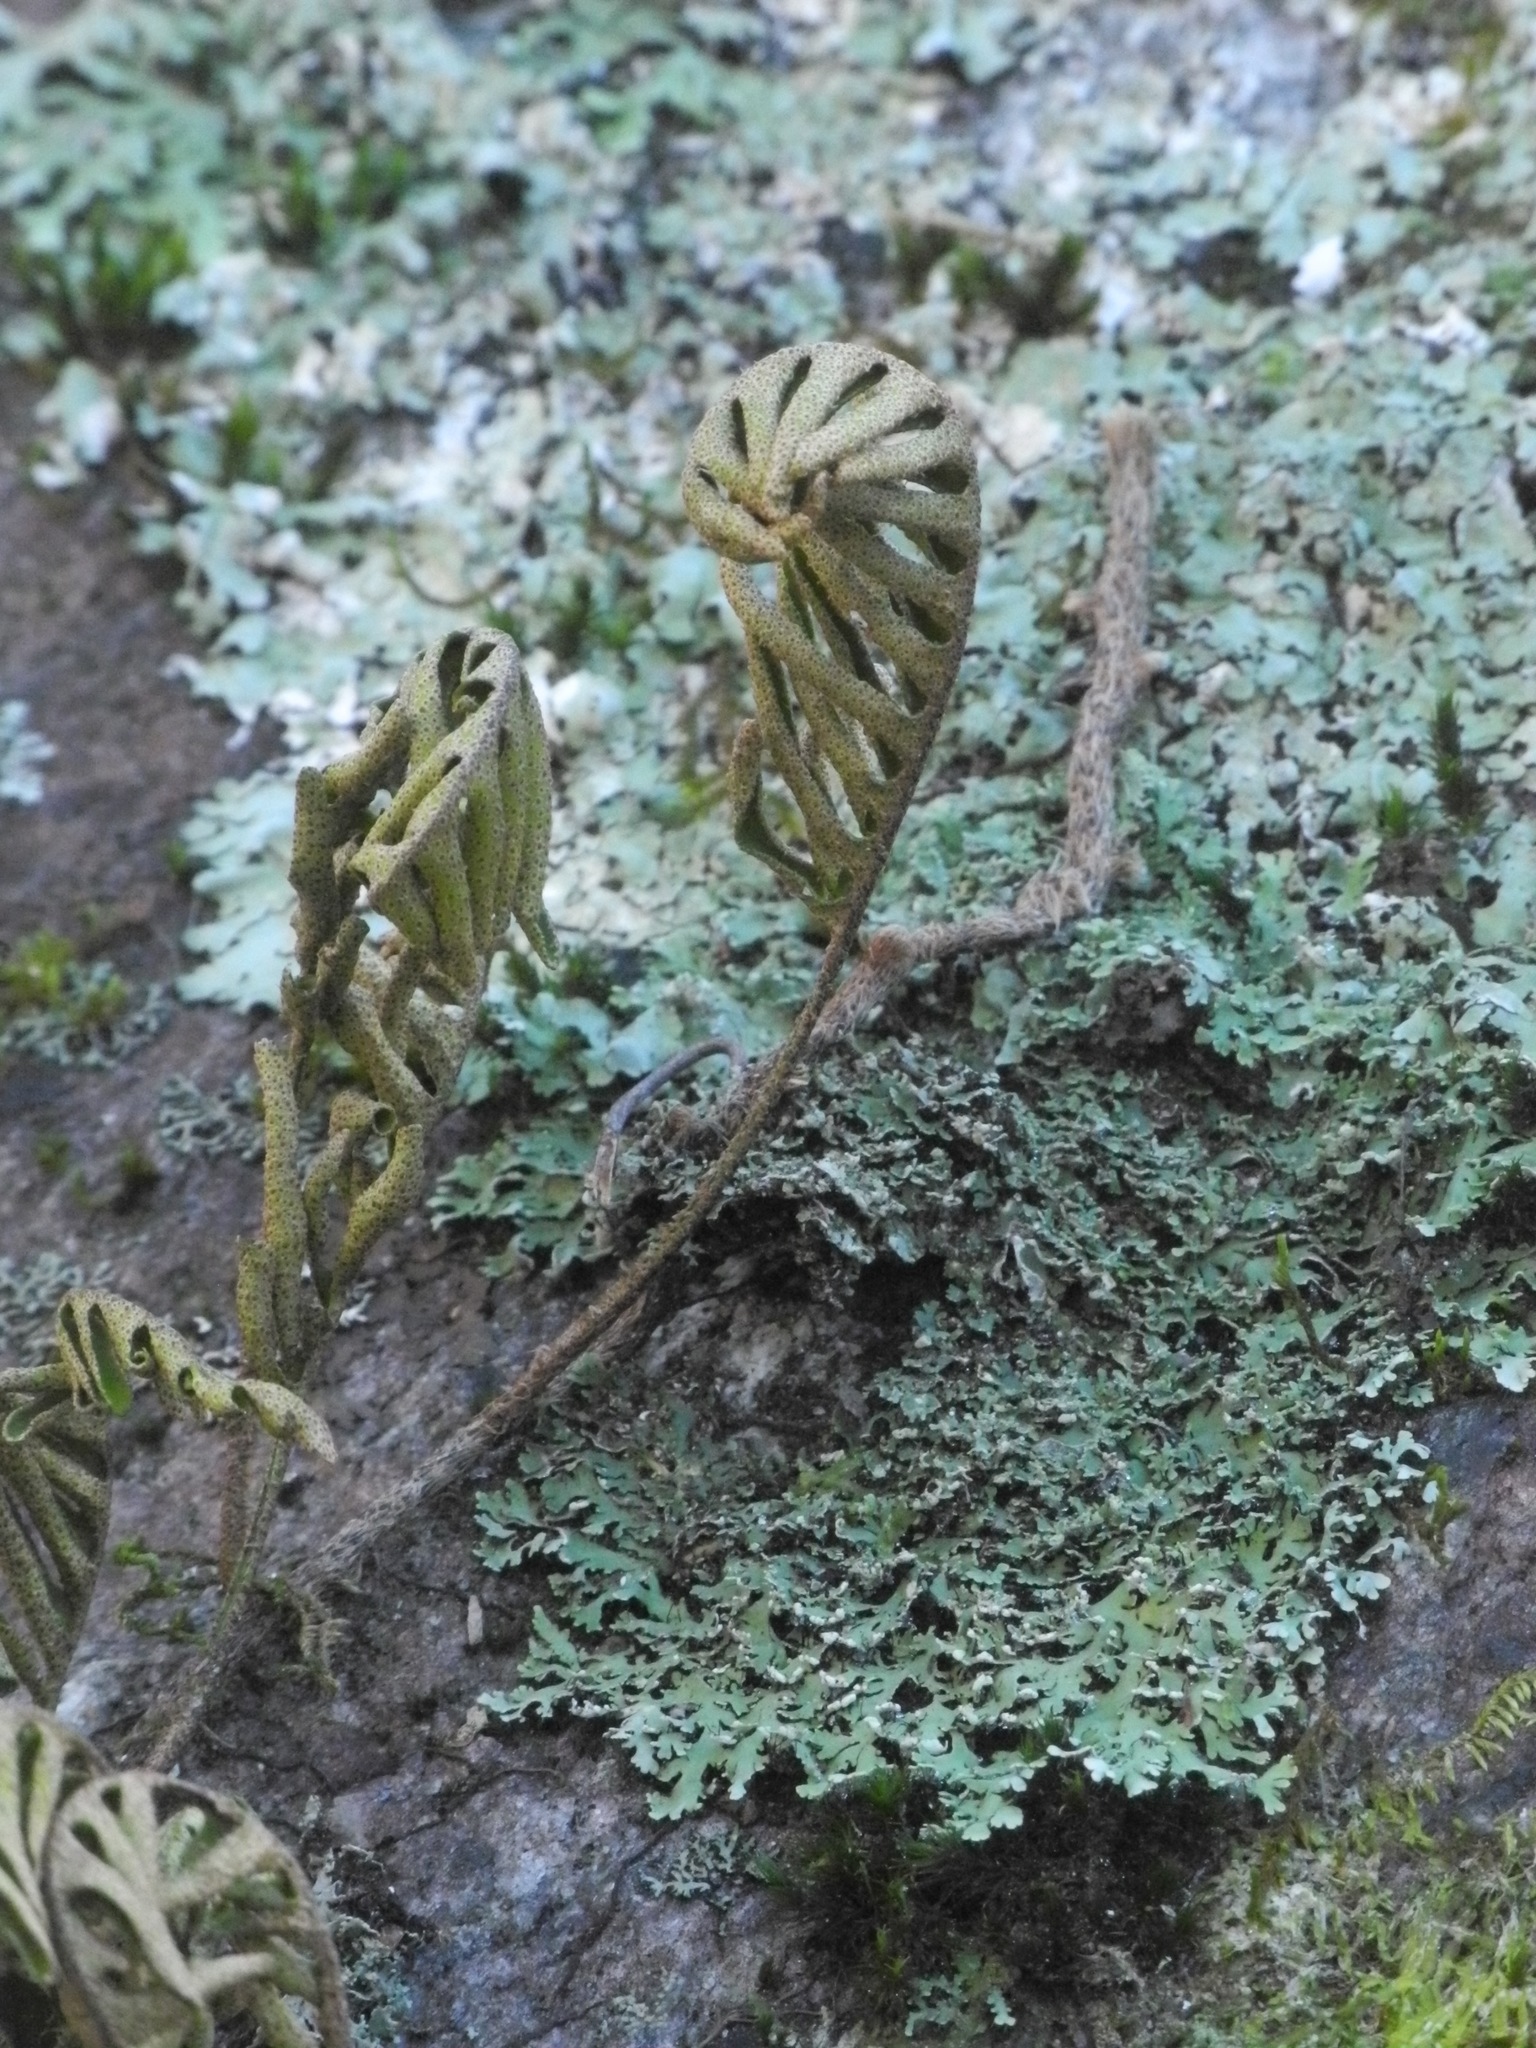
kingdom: Plantae
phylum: Tracheophyta
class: Polypodiopsida
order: Polypodiales
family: Polypodiaceae
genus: Pleopeltis
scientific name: Pleopeltis michauxiana
